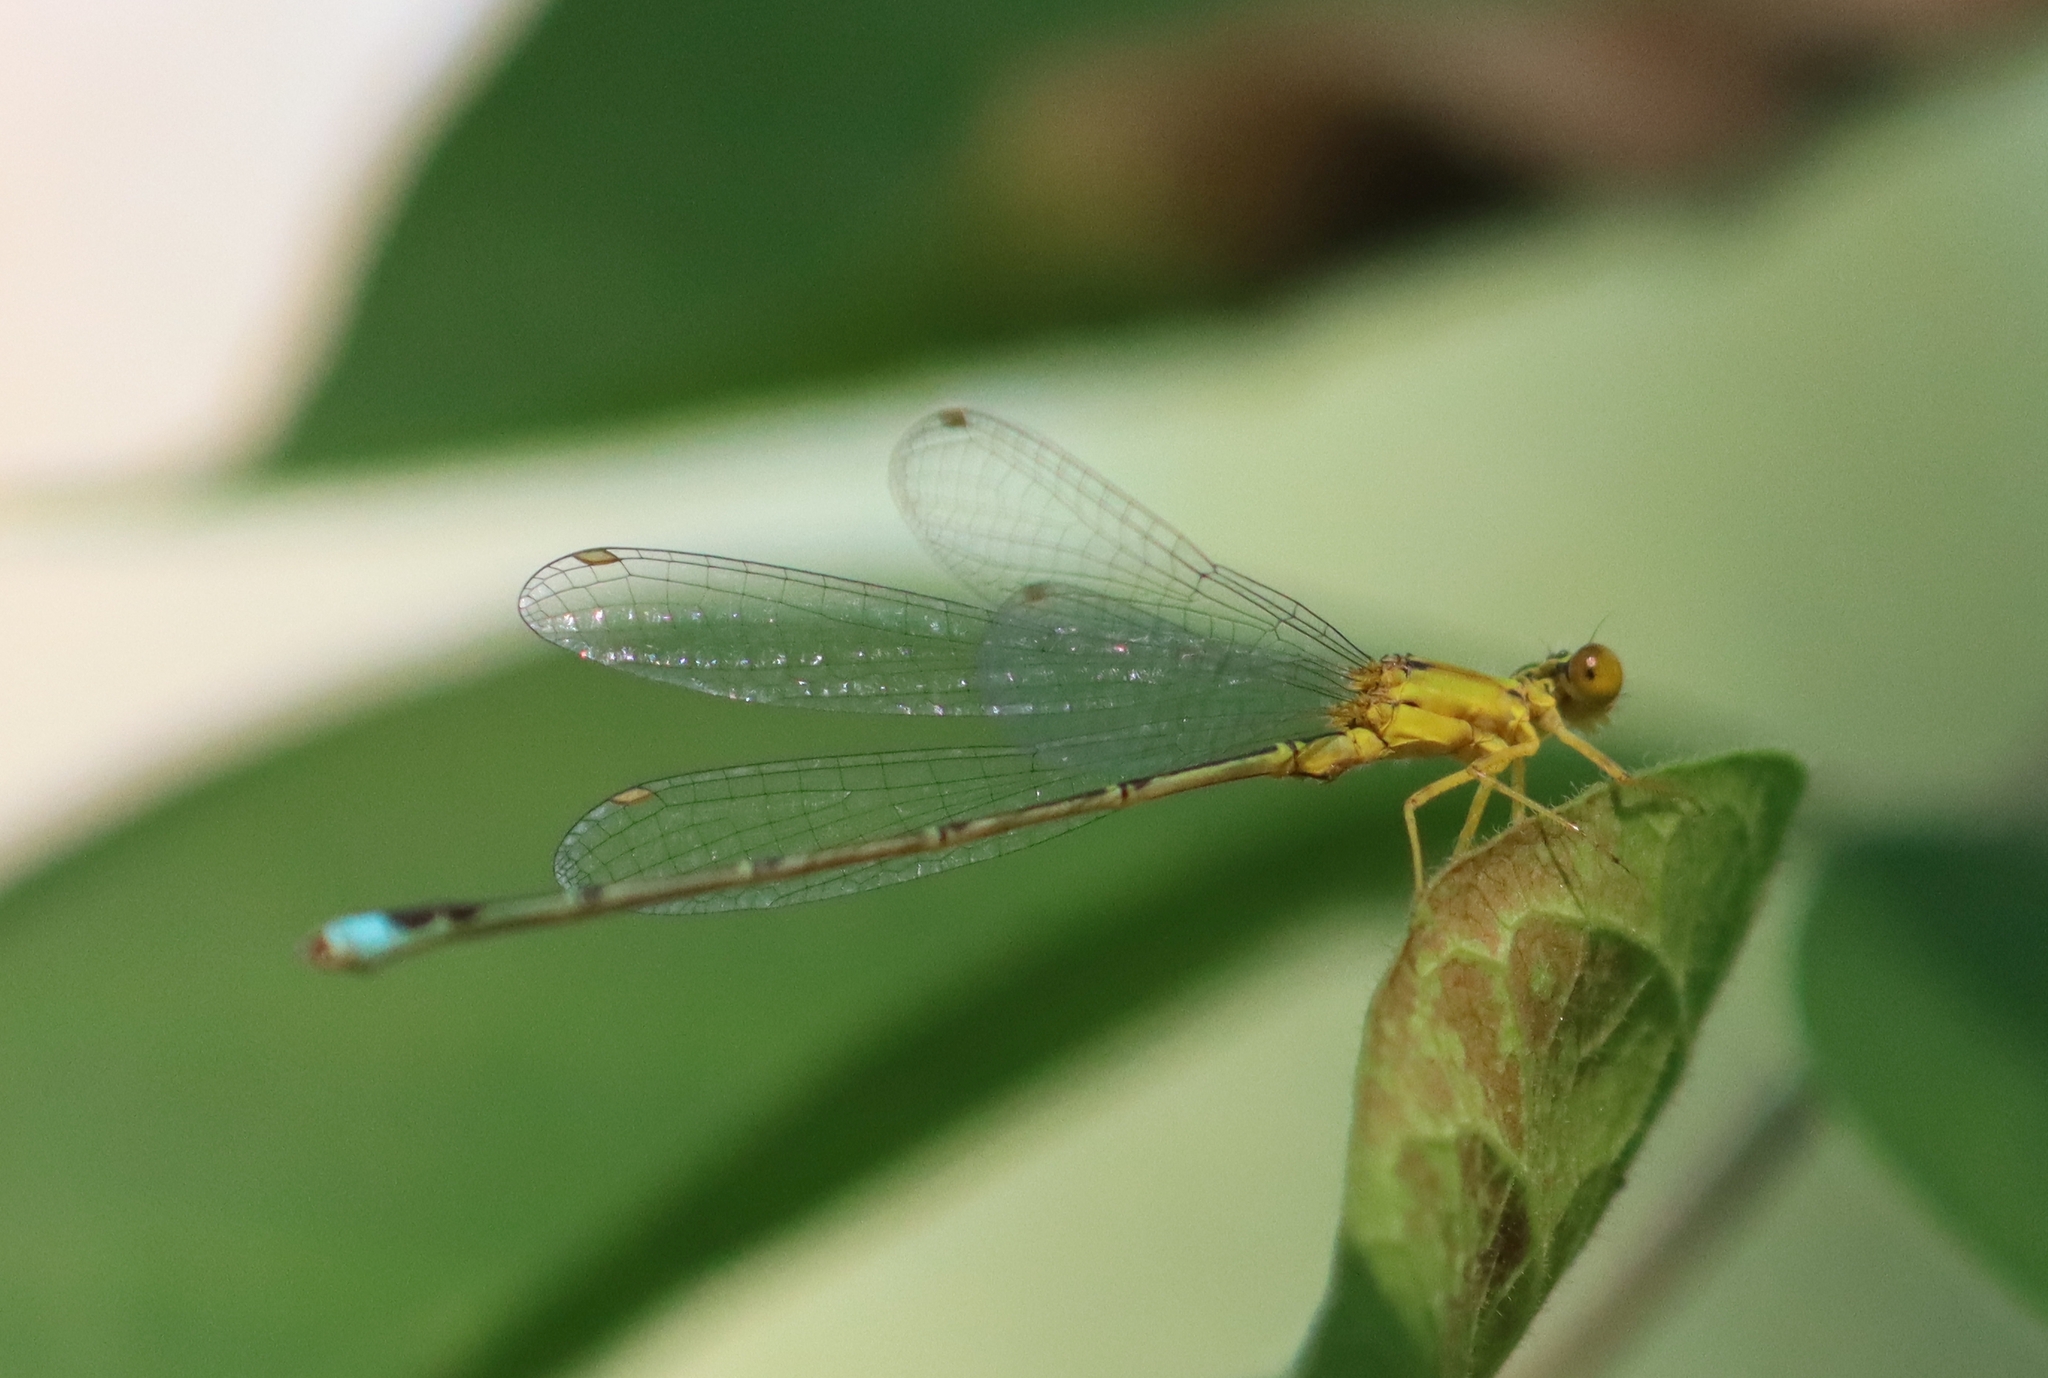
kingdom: Animalia
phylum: Arthropoda
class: Insecta
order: Odonata
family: Coenagrionidae
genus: Enallagma
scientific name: Enallagma vesperum
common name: Vesper bluet
